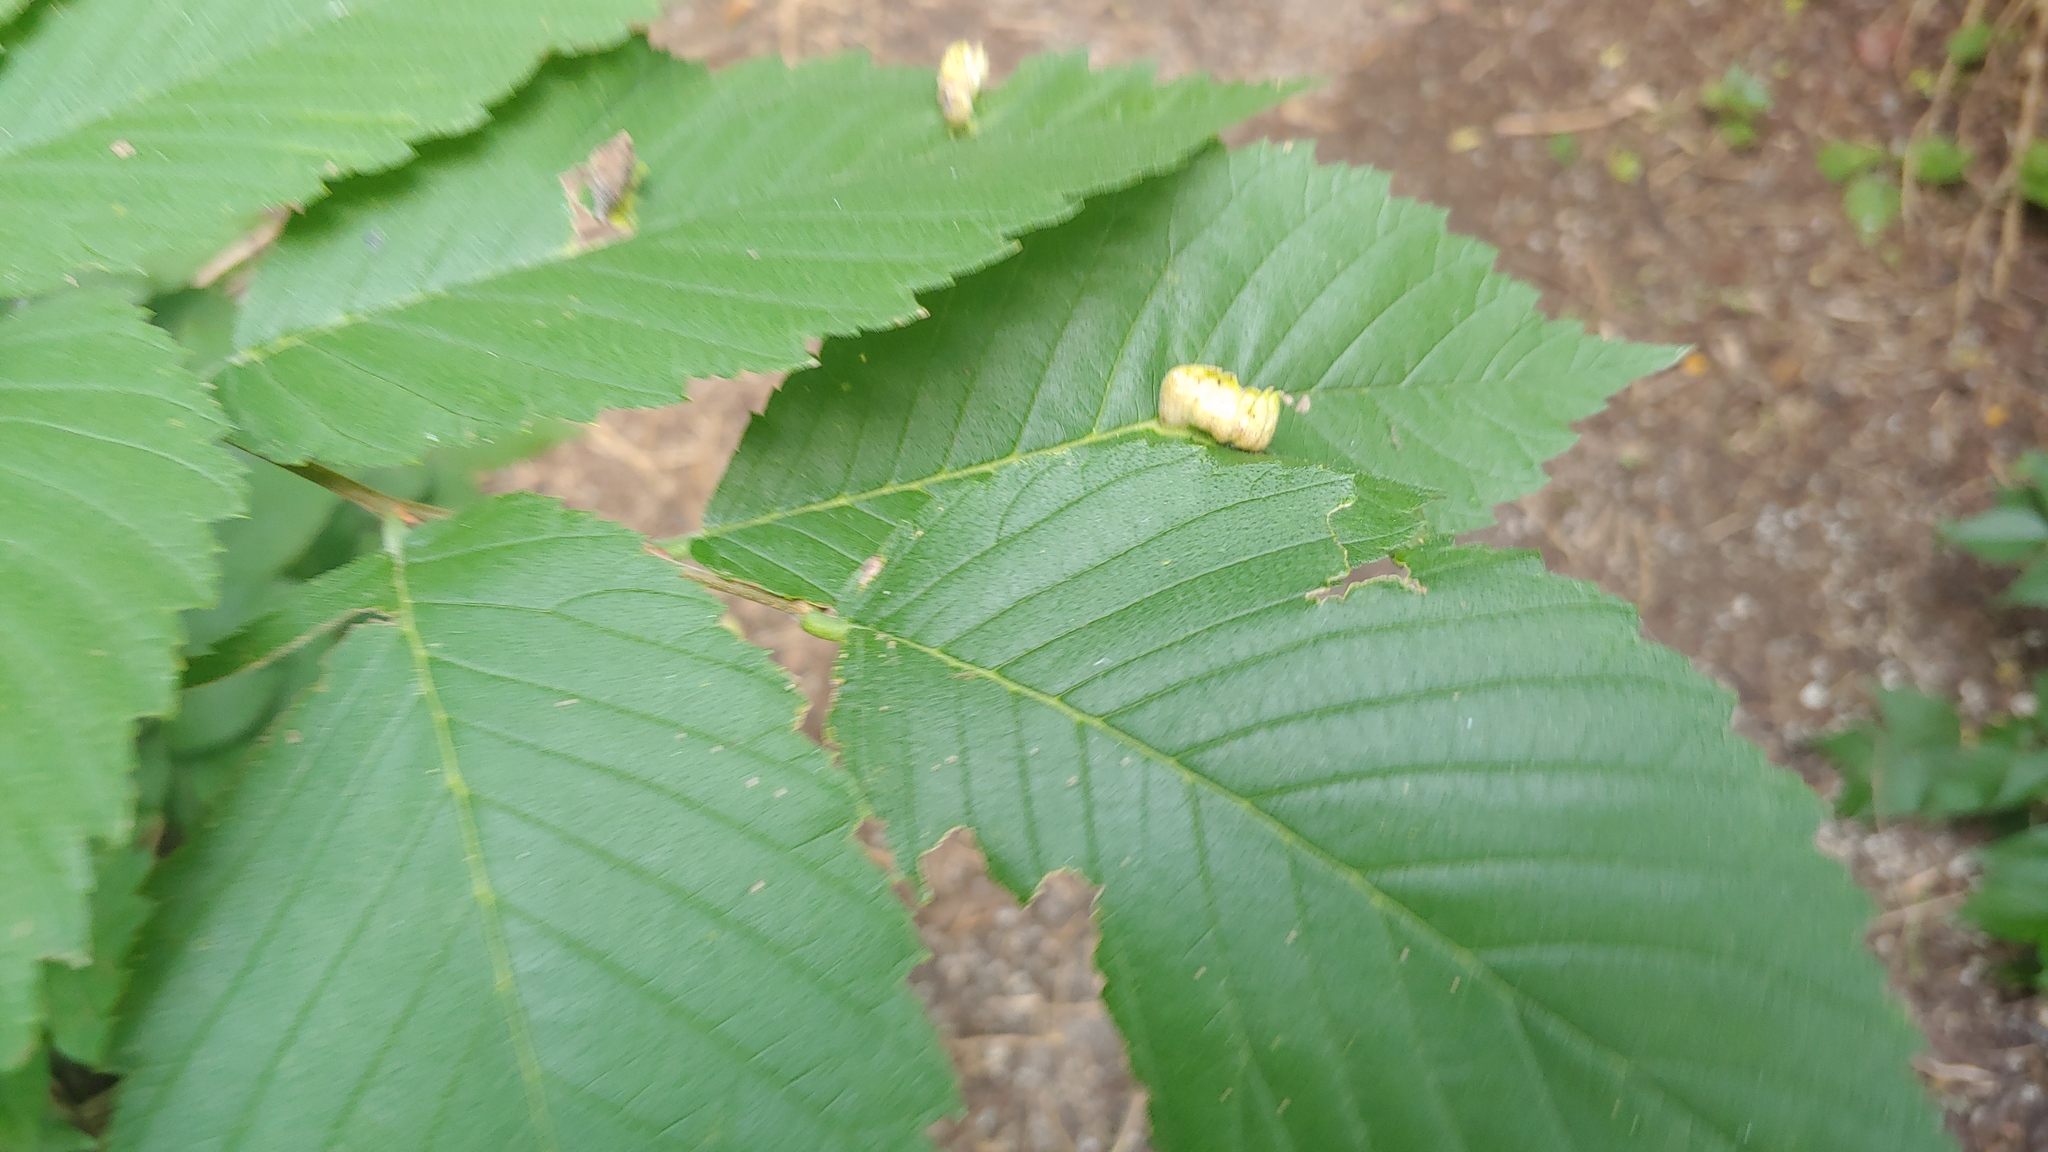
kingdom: Animalia
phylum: Arthropoda
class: Insecta
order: Hemiptera
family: Aphididae
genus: Colopha
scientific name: Colopha ulmicola
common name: Elm cockscombgall aphid
